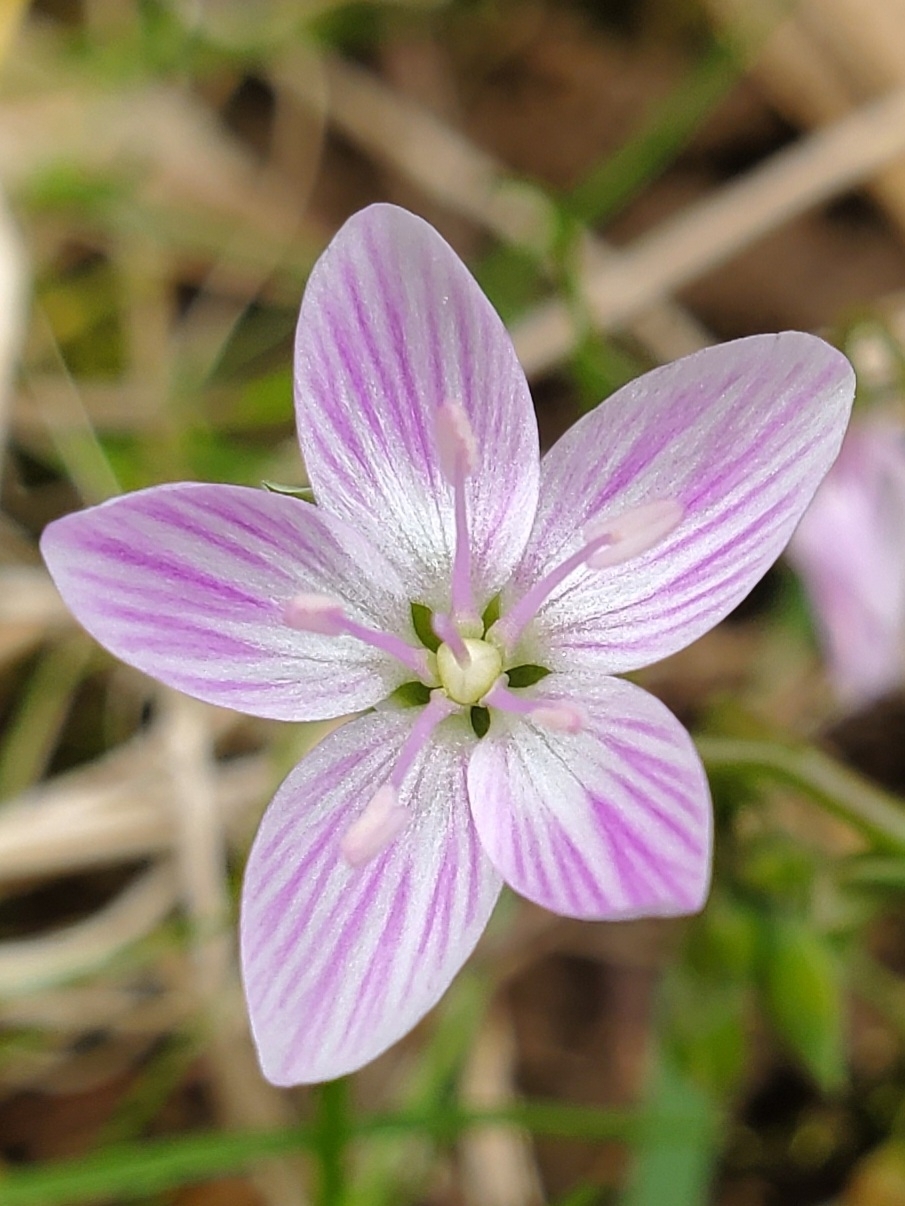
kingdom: Plantae
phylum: Tracheophyta
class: Magnoliopsida
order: Caryophyllales
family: Montiaceae
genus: Claytonia
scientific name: Claytonia virginica
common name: Virginia springbeauty
